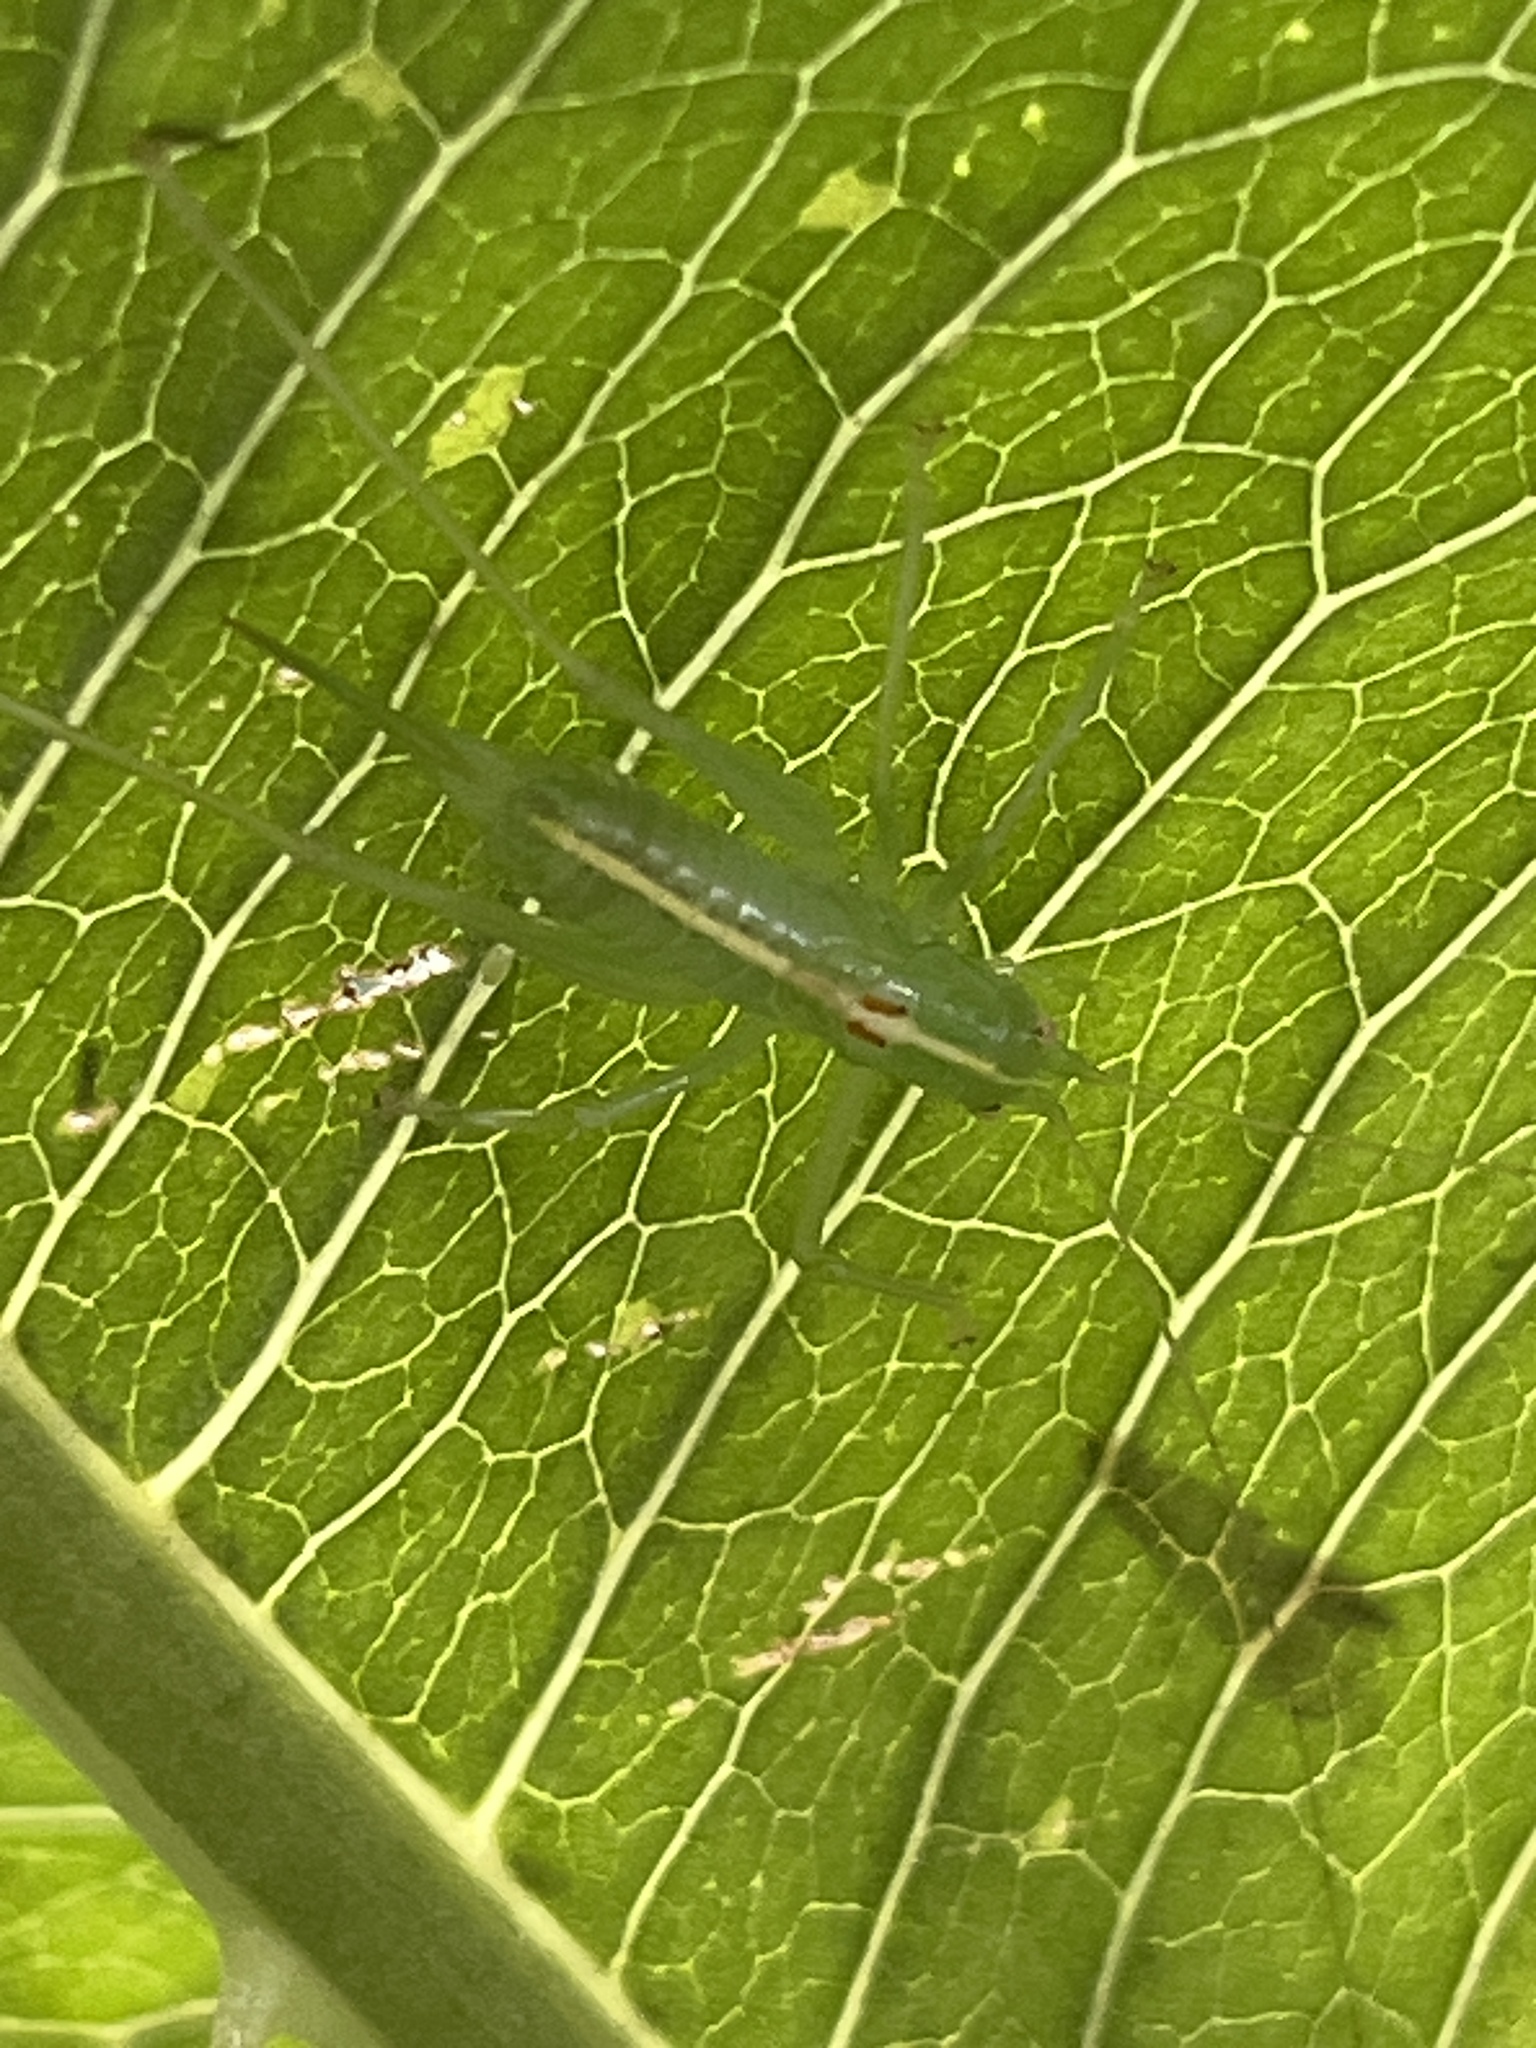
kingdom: Animalia
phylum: Arthropoda
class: Insecta
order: Orthoptera
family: Tettigoniidae
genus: Meconema
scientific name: Meconema meridionale
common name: Southern oak bush-cricket
